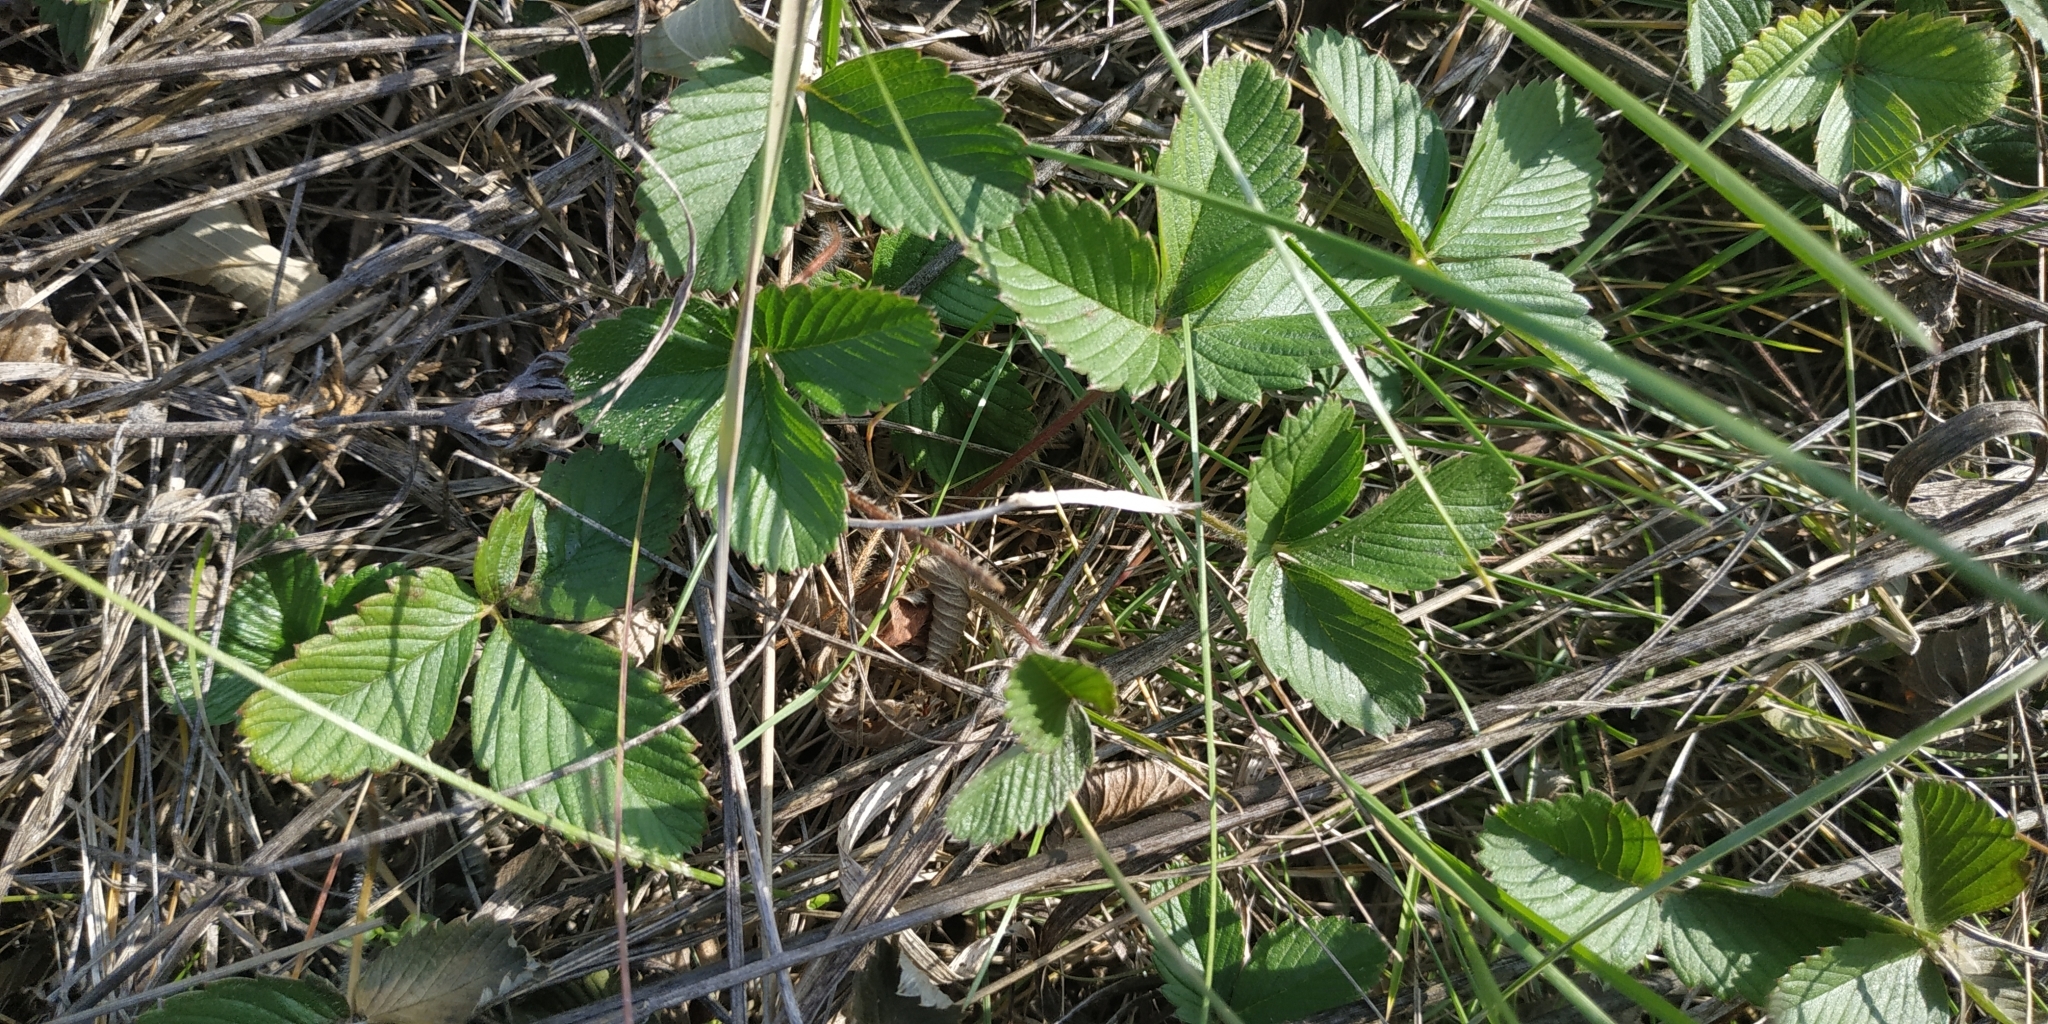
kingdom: Plantae
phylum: Tracheophyta
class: Magnoliopsida
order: Rosales
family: Rosaceae
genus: Fragaria
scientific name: Fragaria viridis
